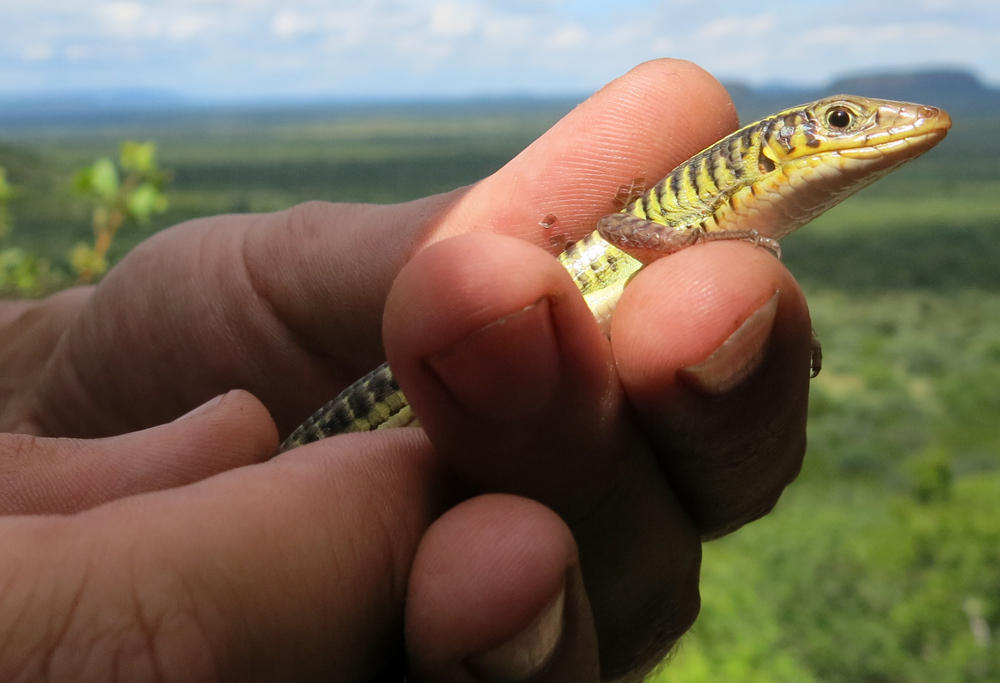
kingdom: Animalia
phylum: Chordata
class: Squamata
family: Gerrhosauridae
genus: Gerrhosaurus
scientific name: Gerrhosaurus flavigularis
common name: Yellow-throated plated lizard
